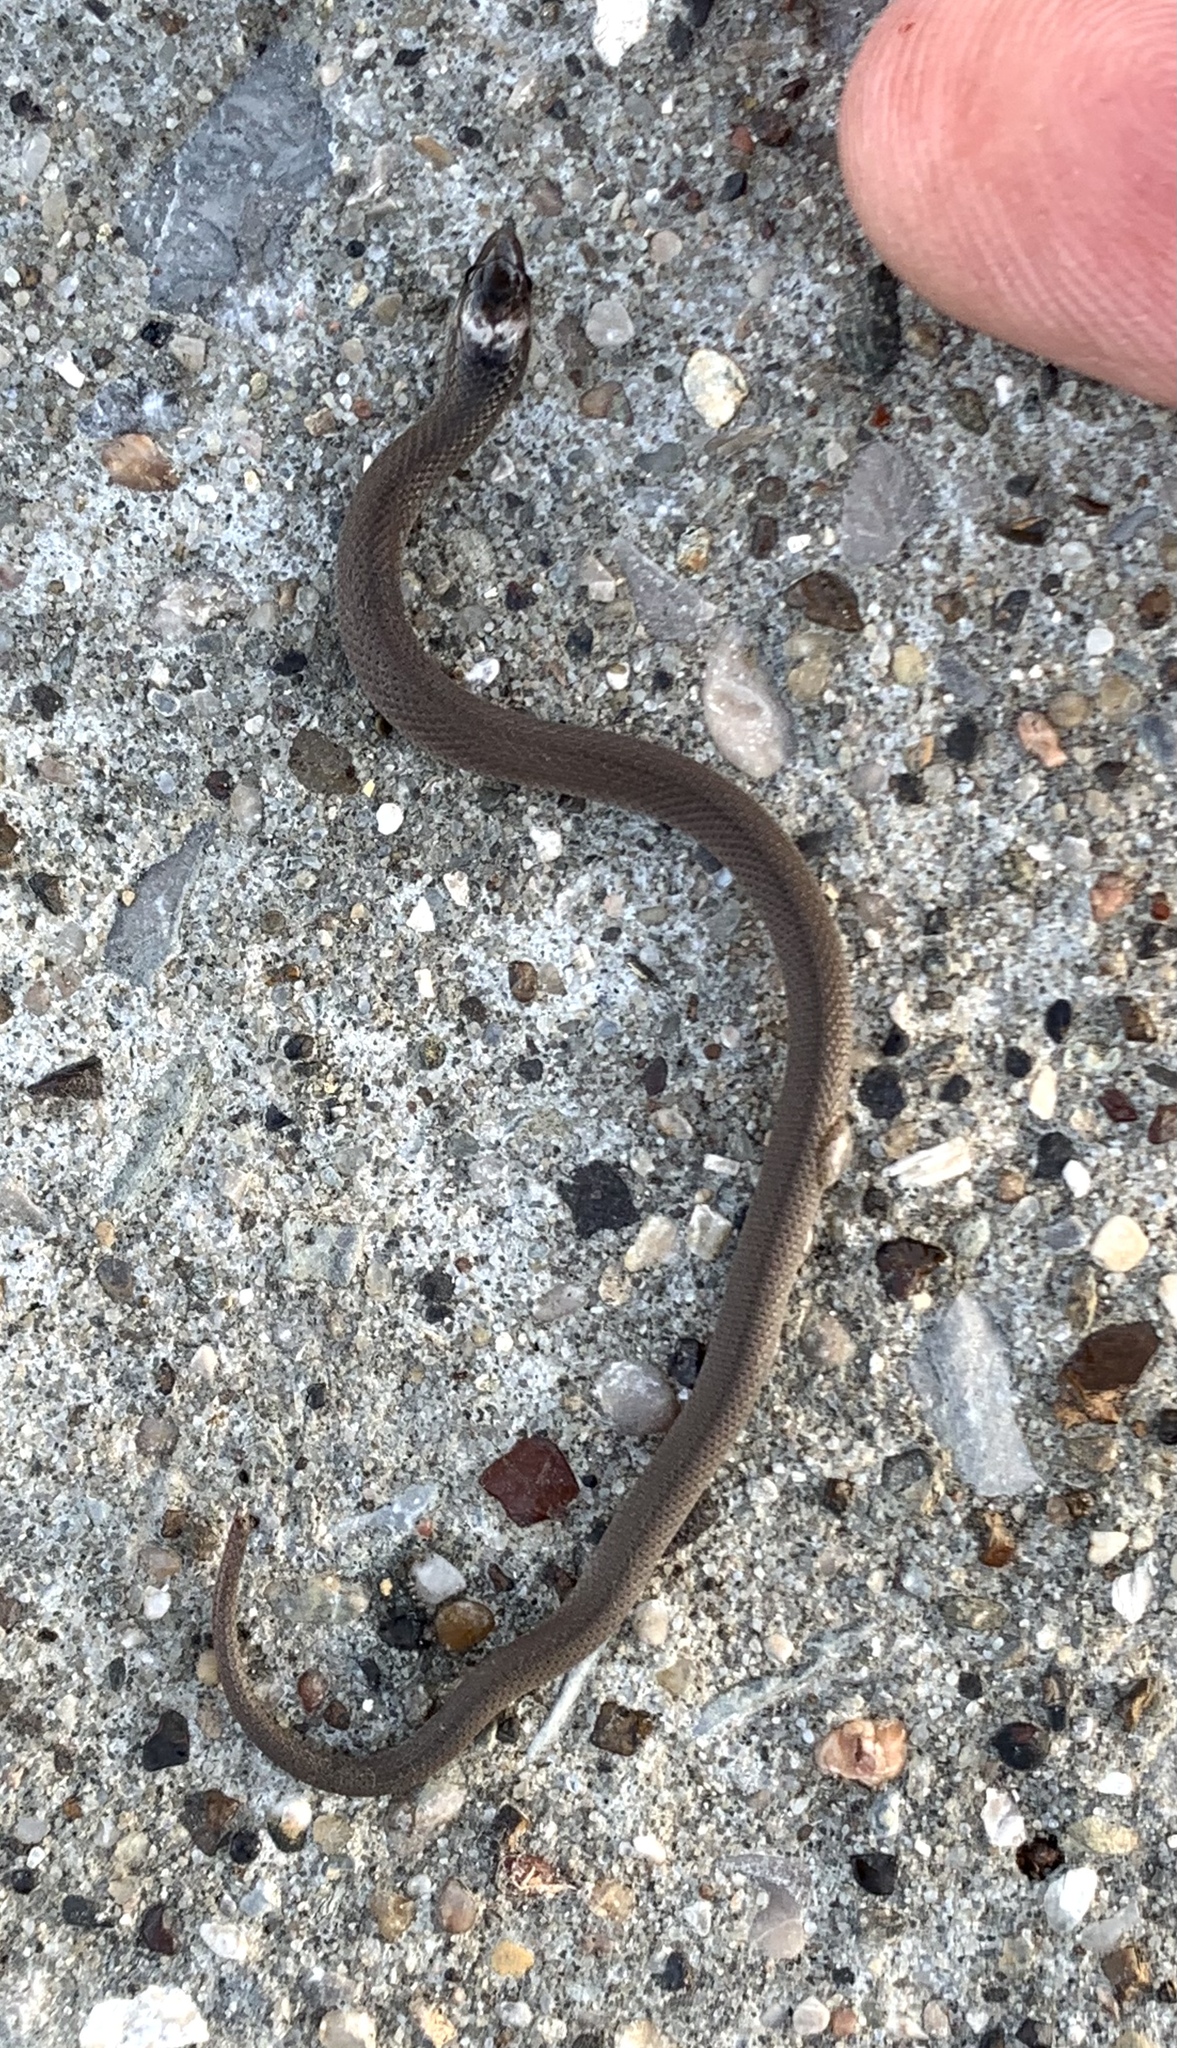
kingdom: Animalia
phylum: Chordata
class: Squamata
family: Colubridae
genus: Haldea
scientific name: Haldea striatula
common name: Rough earth snake
